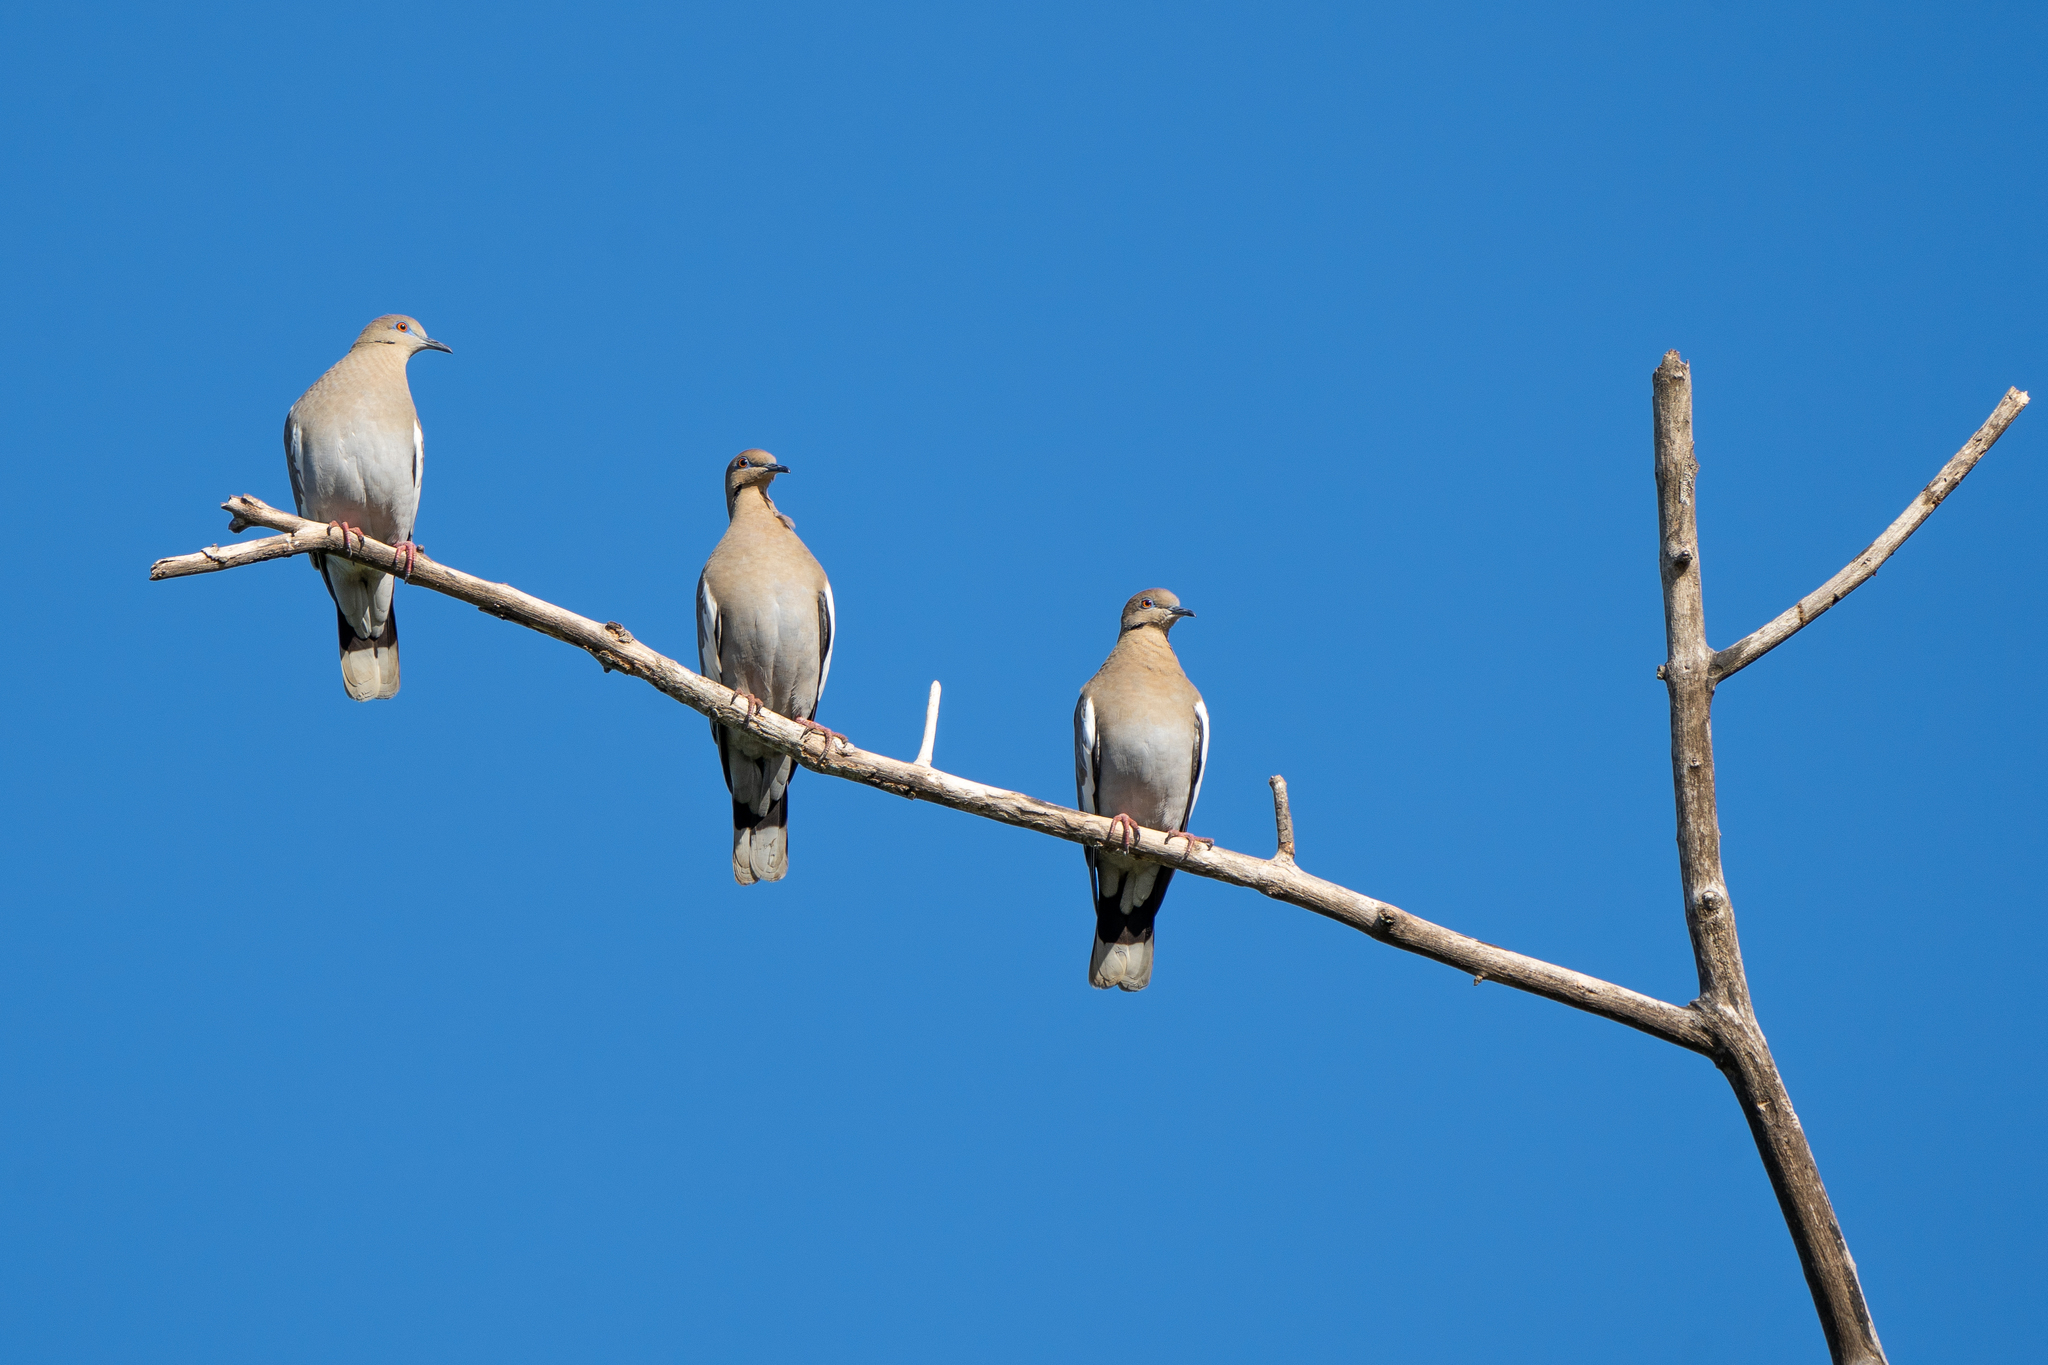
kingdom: Animalia
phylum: Chordata
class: Aves
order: Columbiformes
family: Columbidae
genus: Zenaida
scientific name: Zenaida asiatica
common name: White-winged dove
